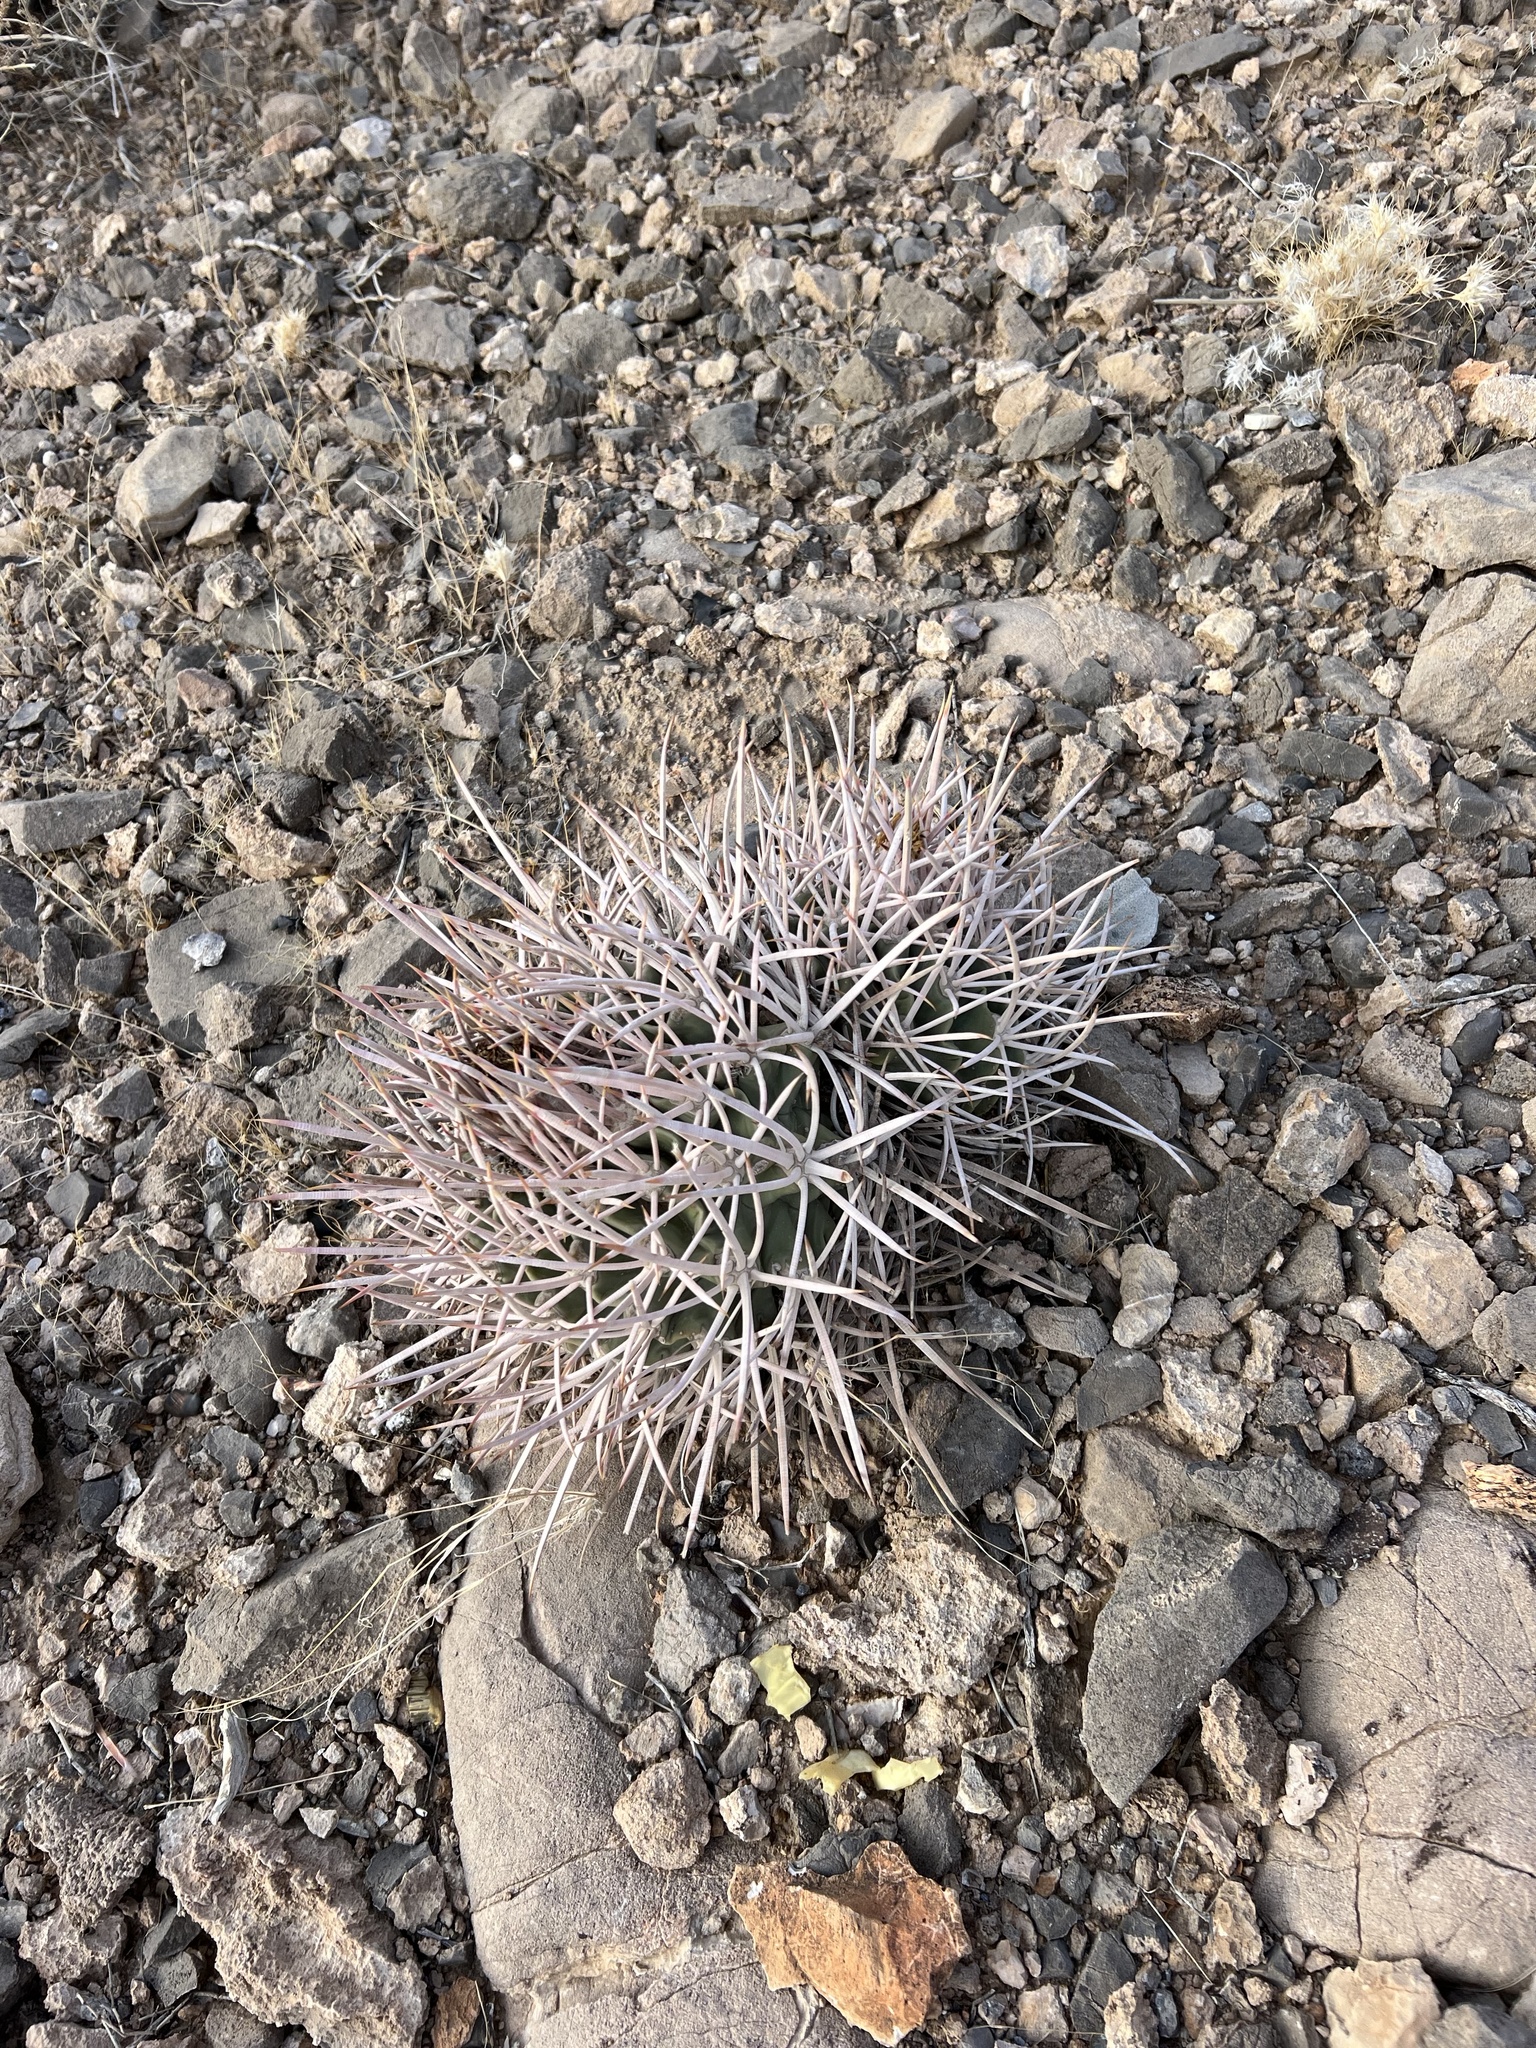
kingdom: Plantae
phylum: Tracheophyta
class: Magnoliopsida
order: Caryophyllales
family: Cactaceae
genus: Echinocactus
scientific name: Echinocactus polycephalus
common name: Cottontop cactus
